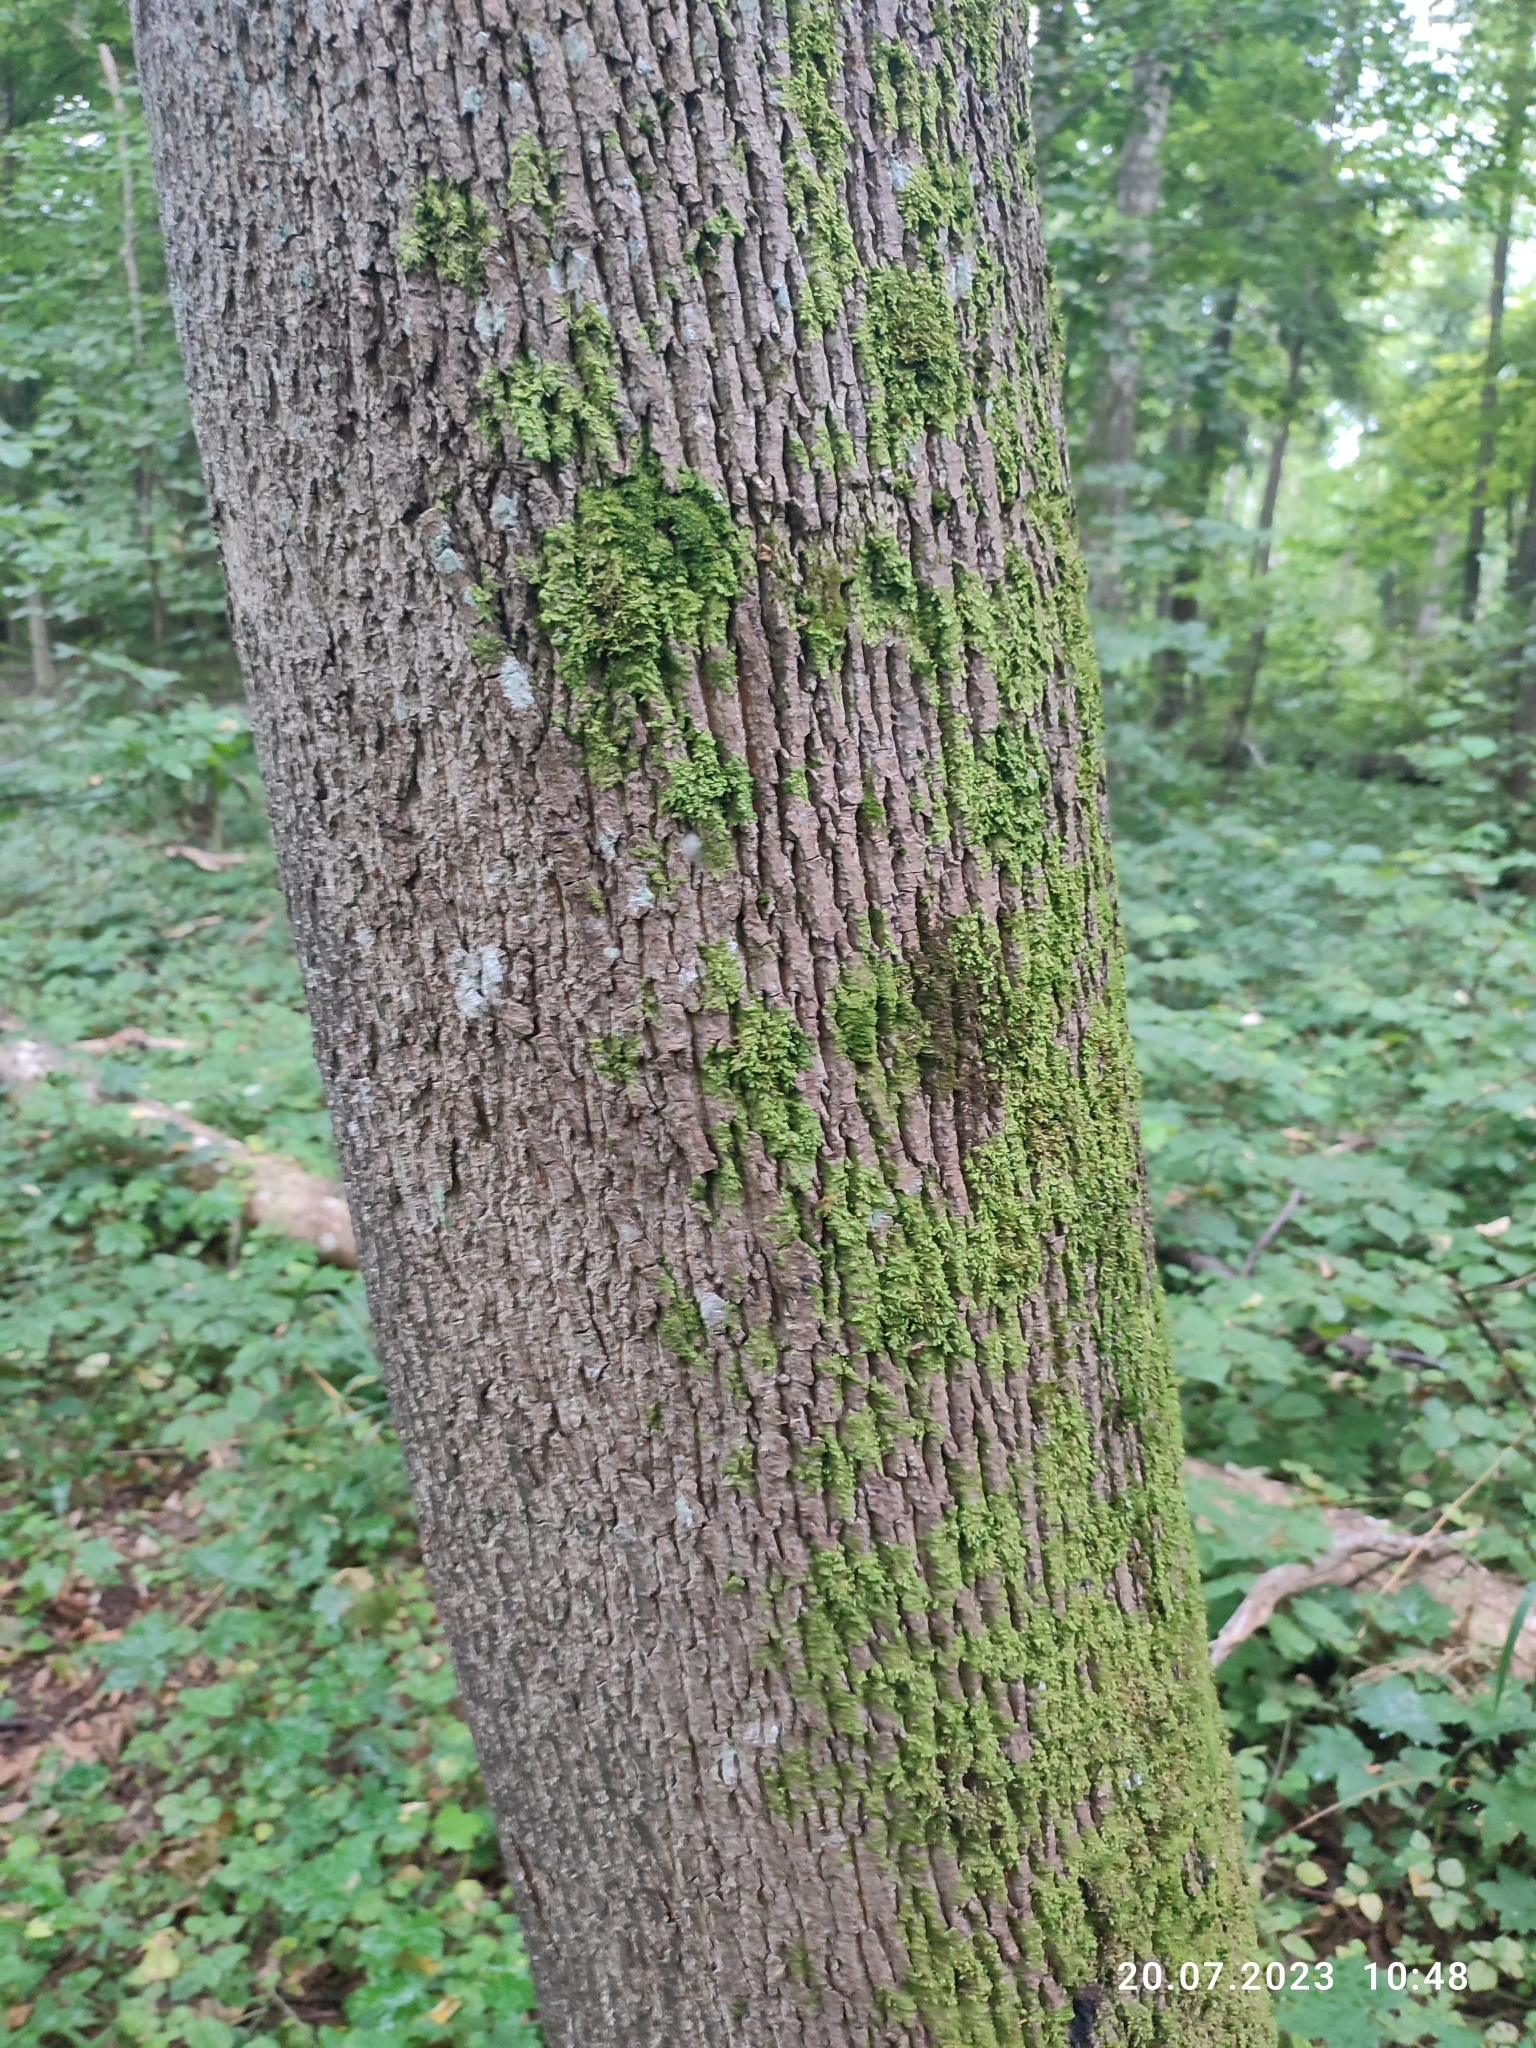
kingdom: Plantae
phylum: Tracheophyta
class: Magnoliopsida
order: Sapindales
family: Sapindaceae
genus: Acer
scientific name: Acer platanoides
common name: Norway maple
